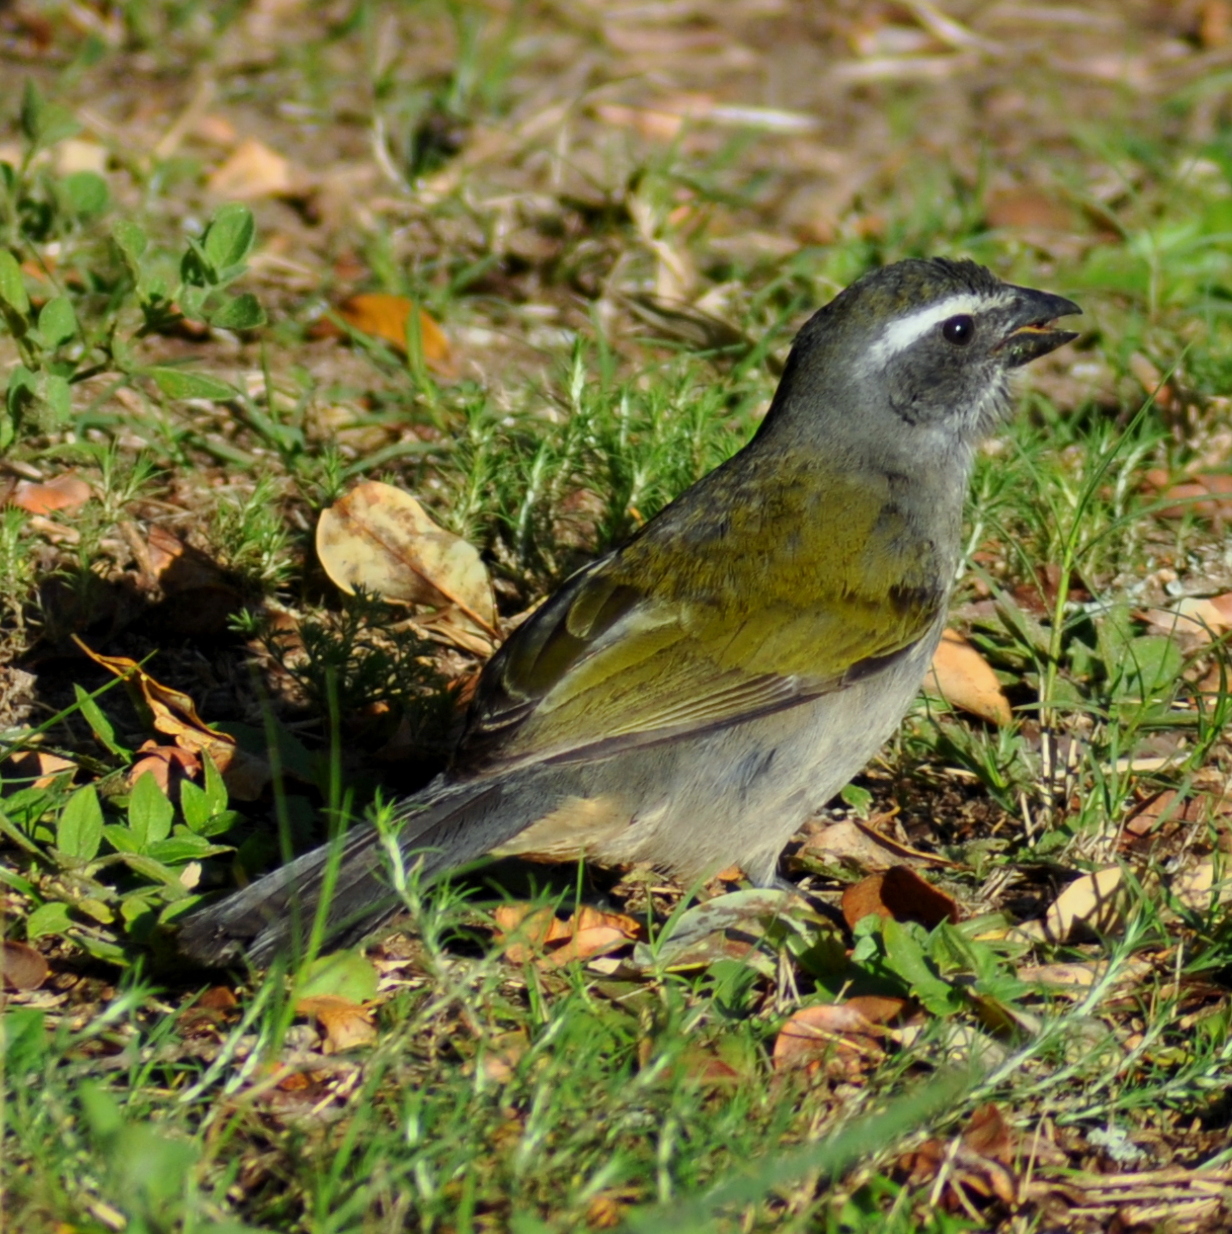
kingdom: Animalia
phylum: Chordata
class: Aves
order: Passeriformes
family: Thraupidae
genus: Saltator
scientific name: Saltator similis
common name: Green-winged saltator
